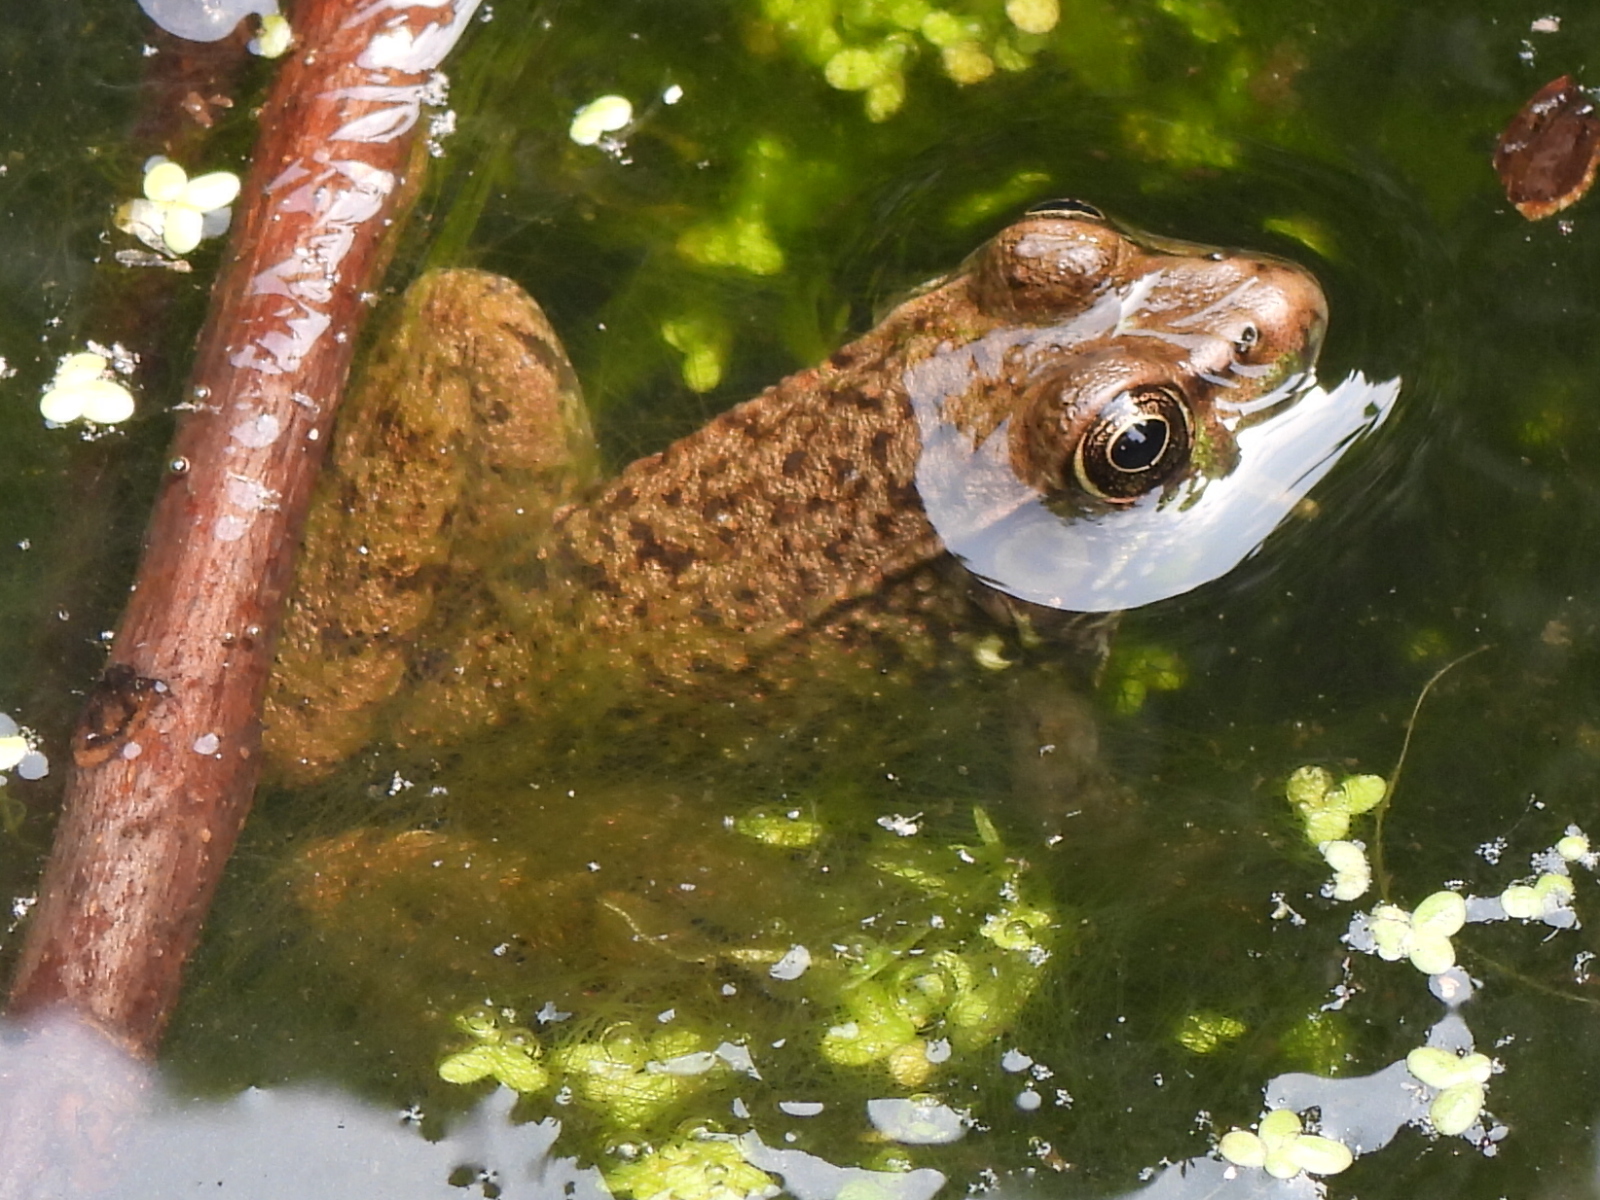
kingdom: Animalia
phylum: Chordata
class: Amphibia
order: Anura
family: Ranidae
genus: Lithobates
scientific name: Lithobates clamitans
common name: Green frog
